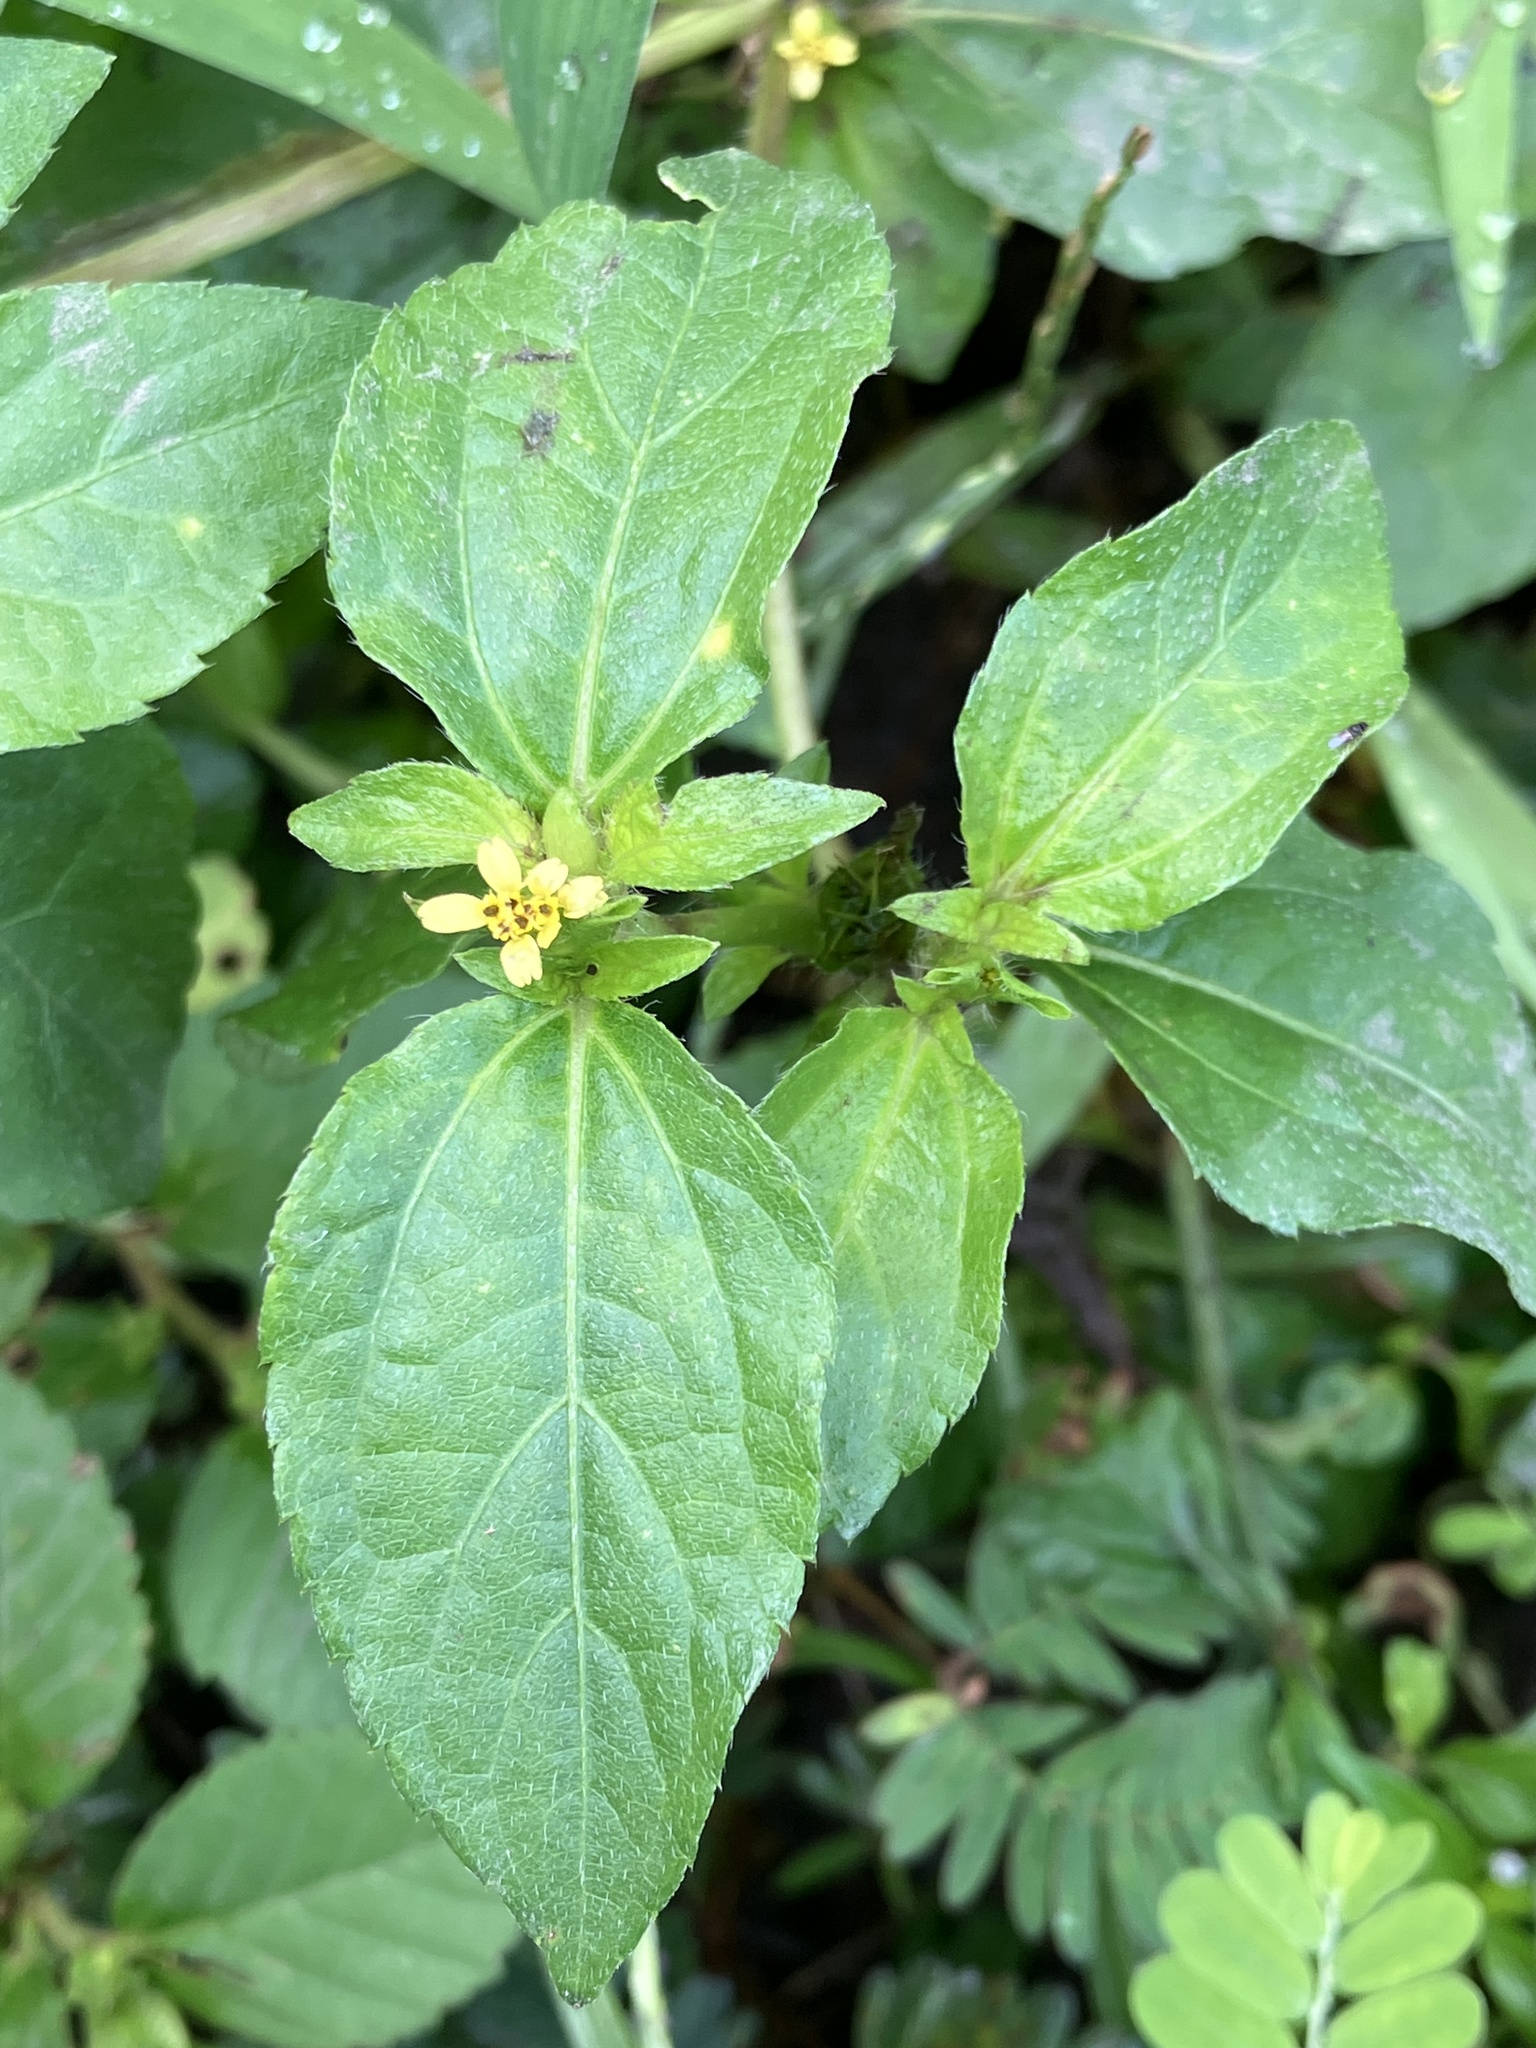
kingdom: Plantae
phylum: Tracheophyta
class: Magnoliopsida
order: Asterales
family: Asteraceae
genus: Synedrella
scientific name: Synedrella nodiflora
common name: Nodeweed
